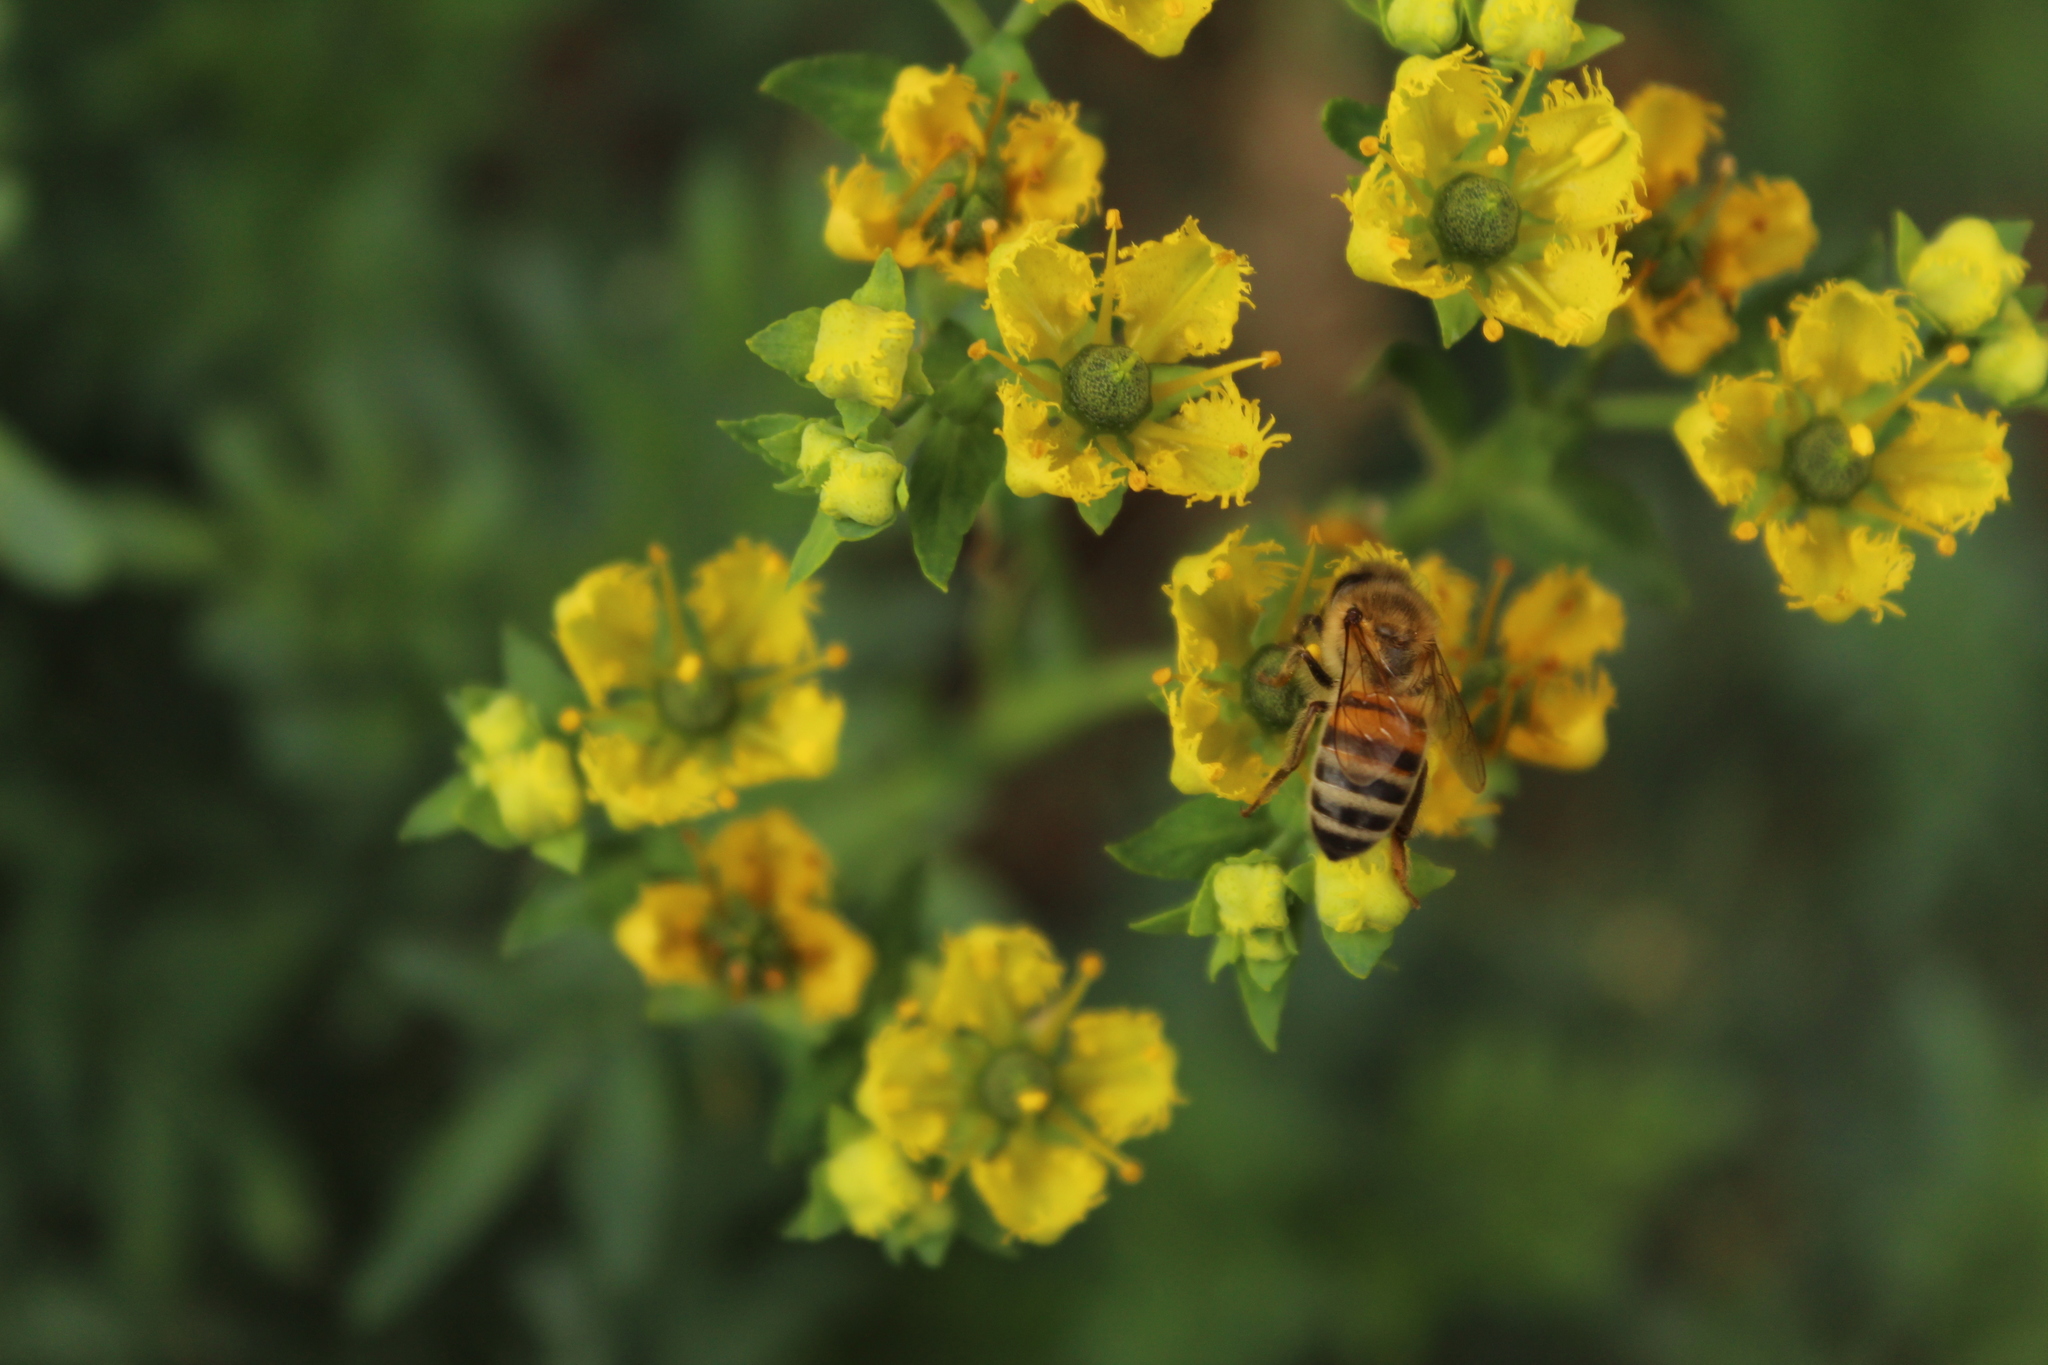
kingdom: Animalia
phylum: Arthropoda
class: Insecta
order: Hymenoptera
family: Apidae
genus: Apis
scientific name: Apis mellifera
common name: Honey bee
